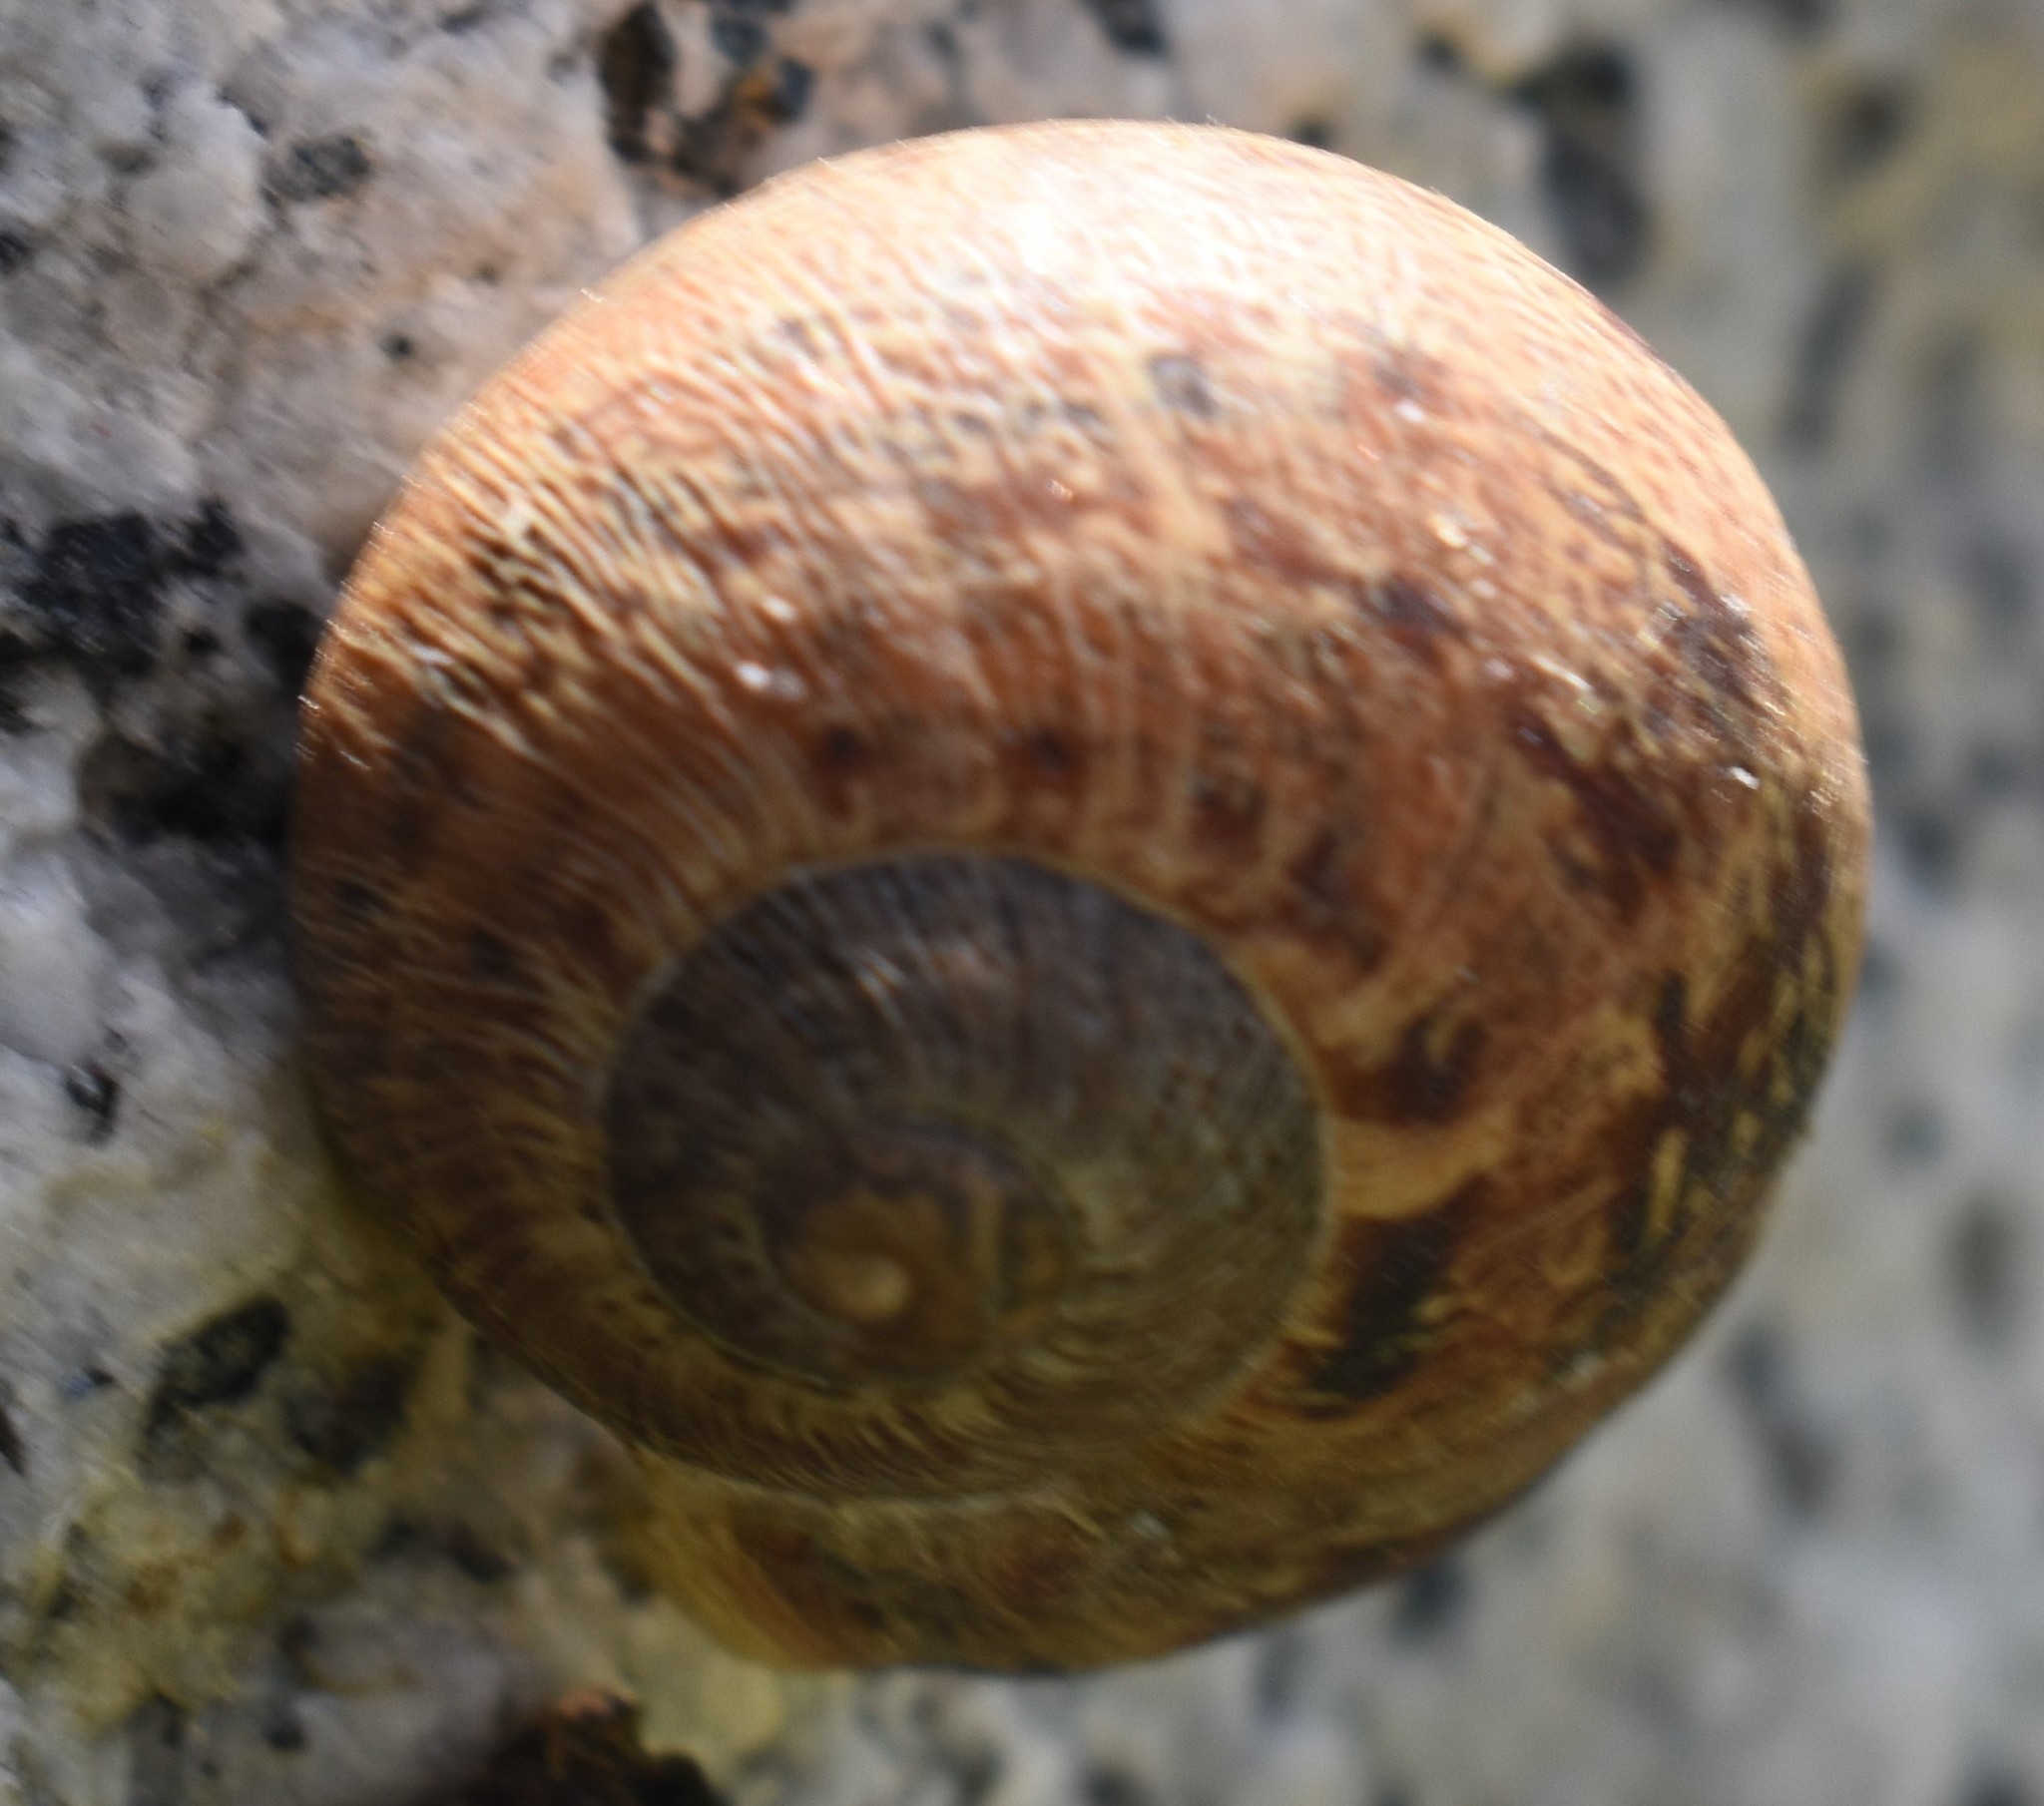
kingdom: Animalia
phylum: Mollusca
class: Gastropoda
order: Stylommatophora
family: Helicidae
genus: Cornu
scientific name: Cornu aspersum
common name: Brown garden snail
